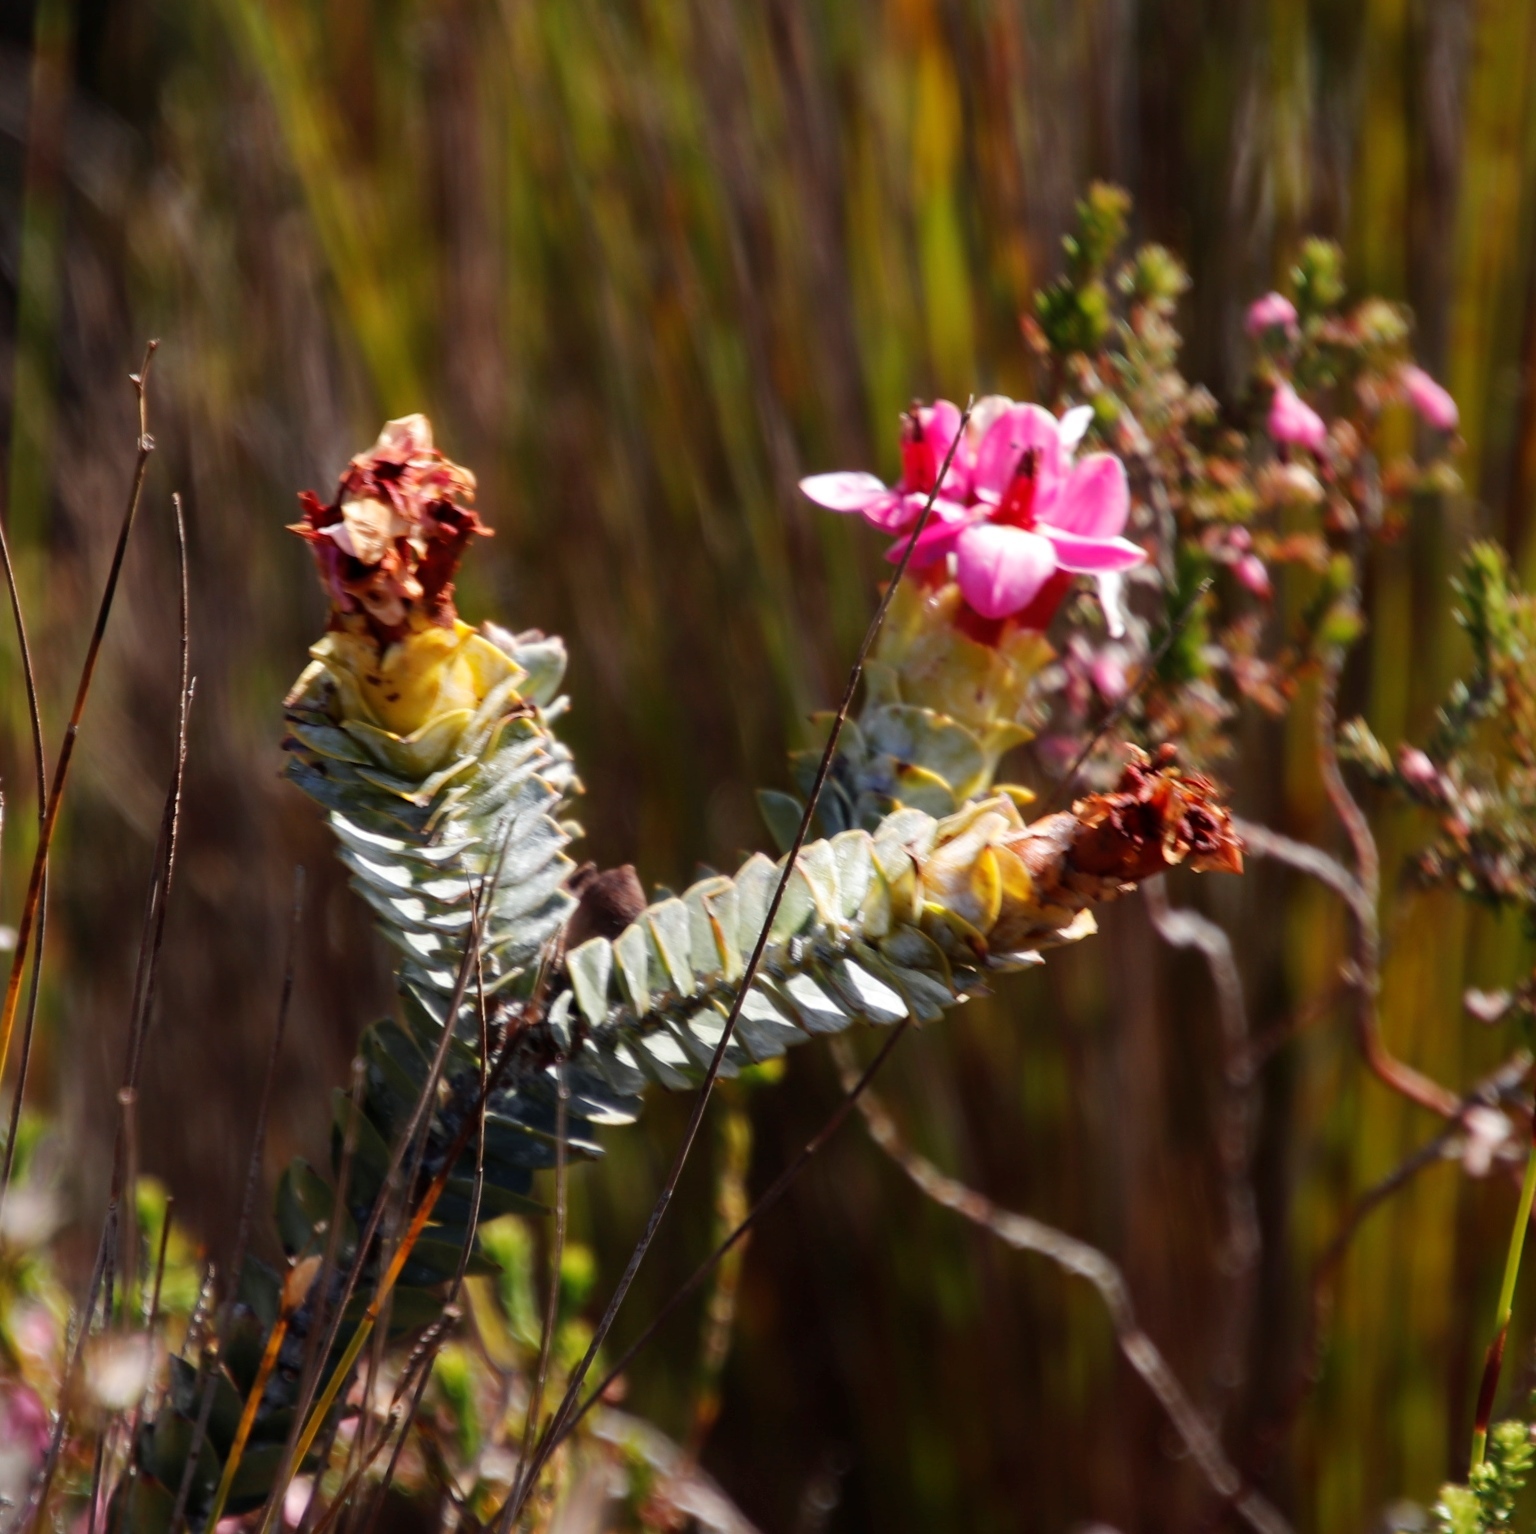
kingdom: Plantae
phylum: Tracheophyta
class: Magnoliopsida
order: Myrtales
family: Penaeaceae
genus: Saltera
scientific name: Saltera sarcocolla
